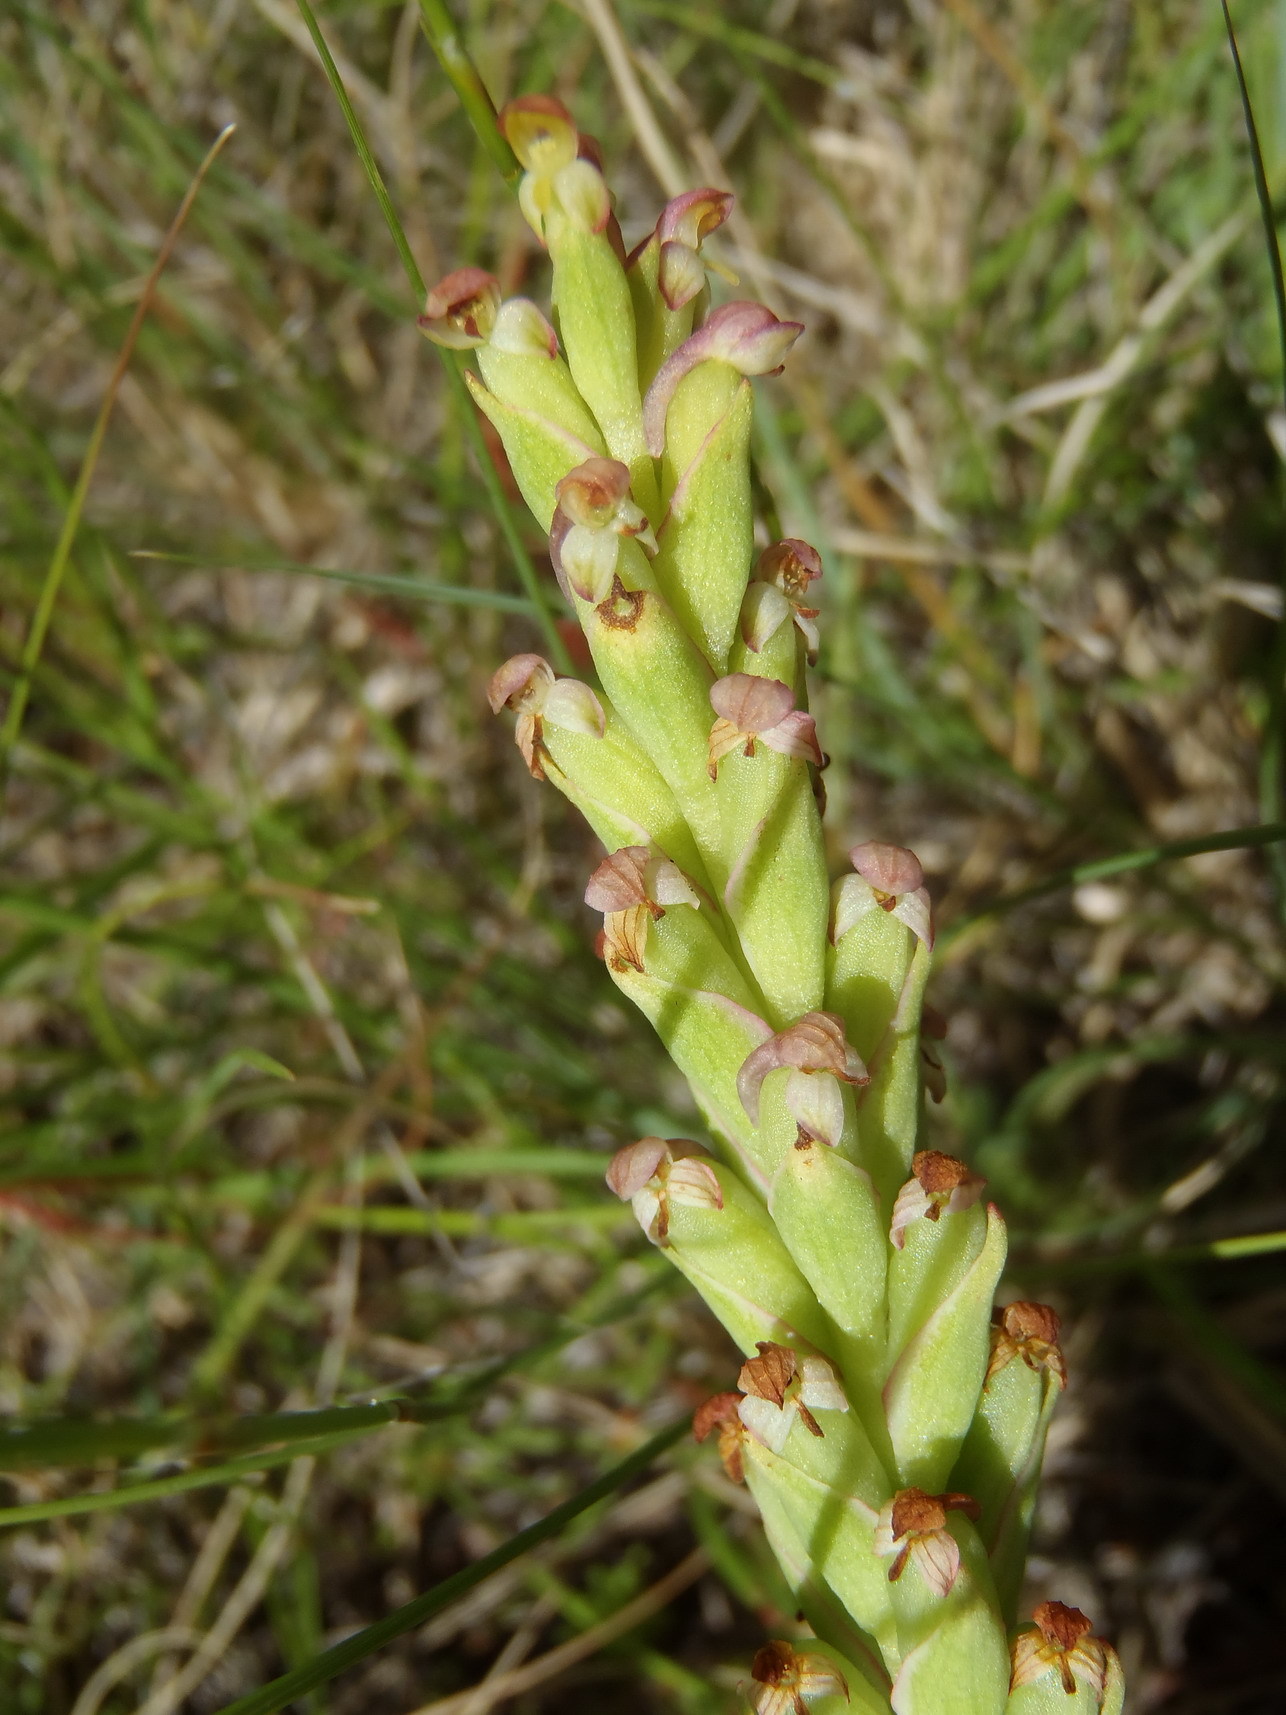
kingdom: Plantae
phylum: Tracheophyta
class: Liliopsida
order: Asparagales
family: Orchidaceae
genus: Disa
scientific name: Disa bracteata
